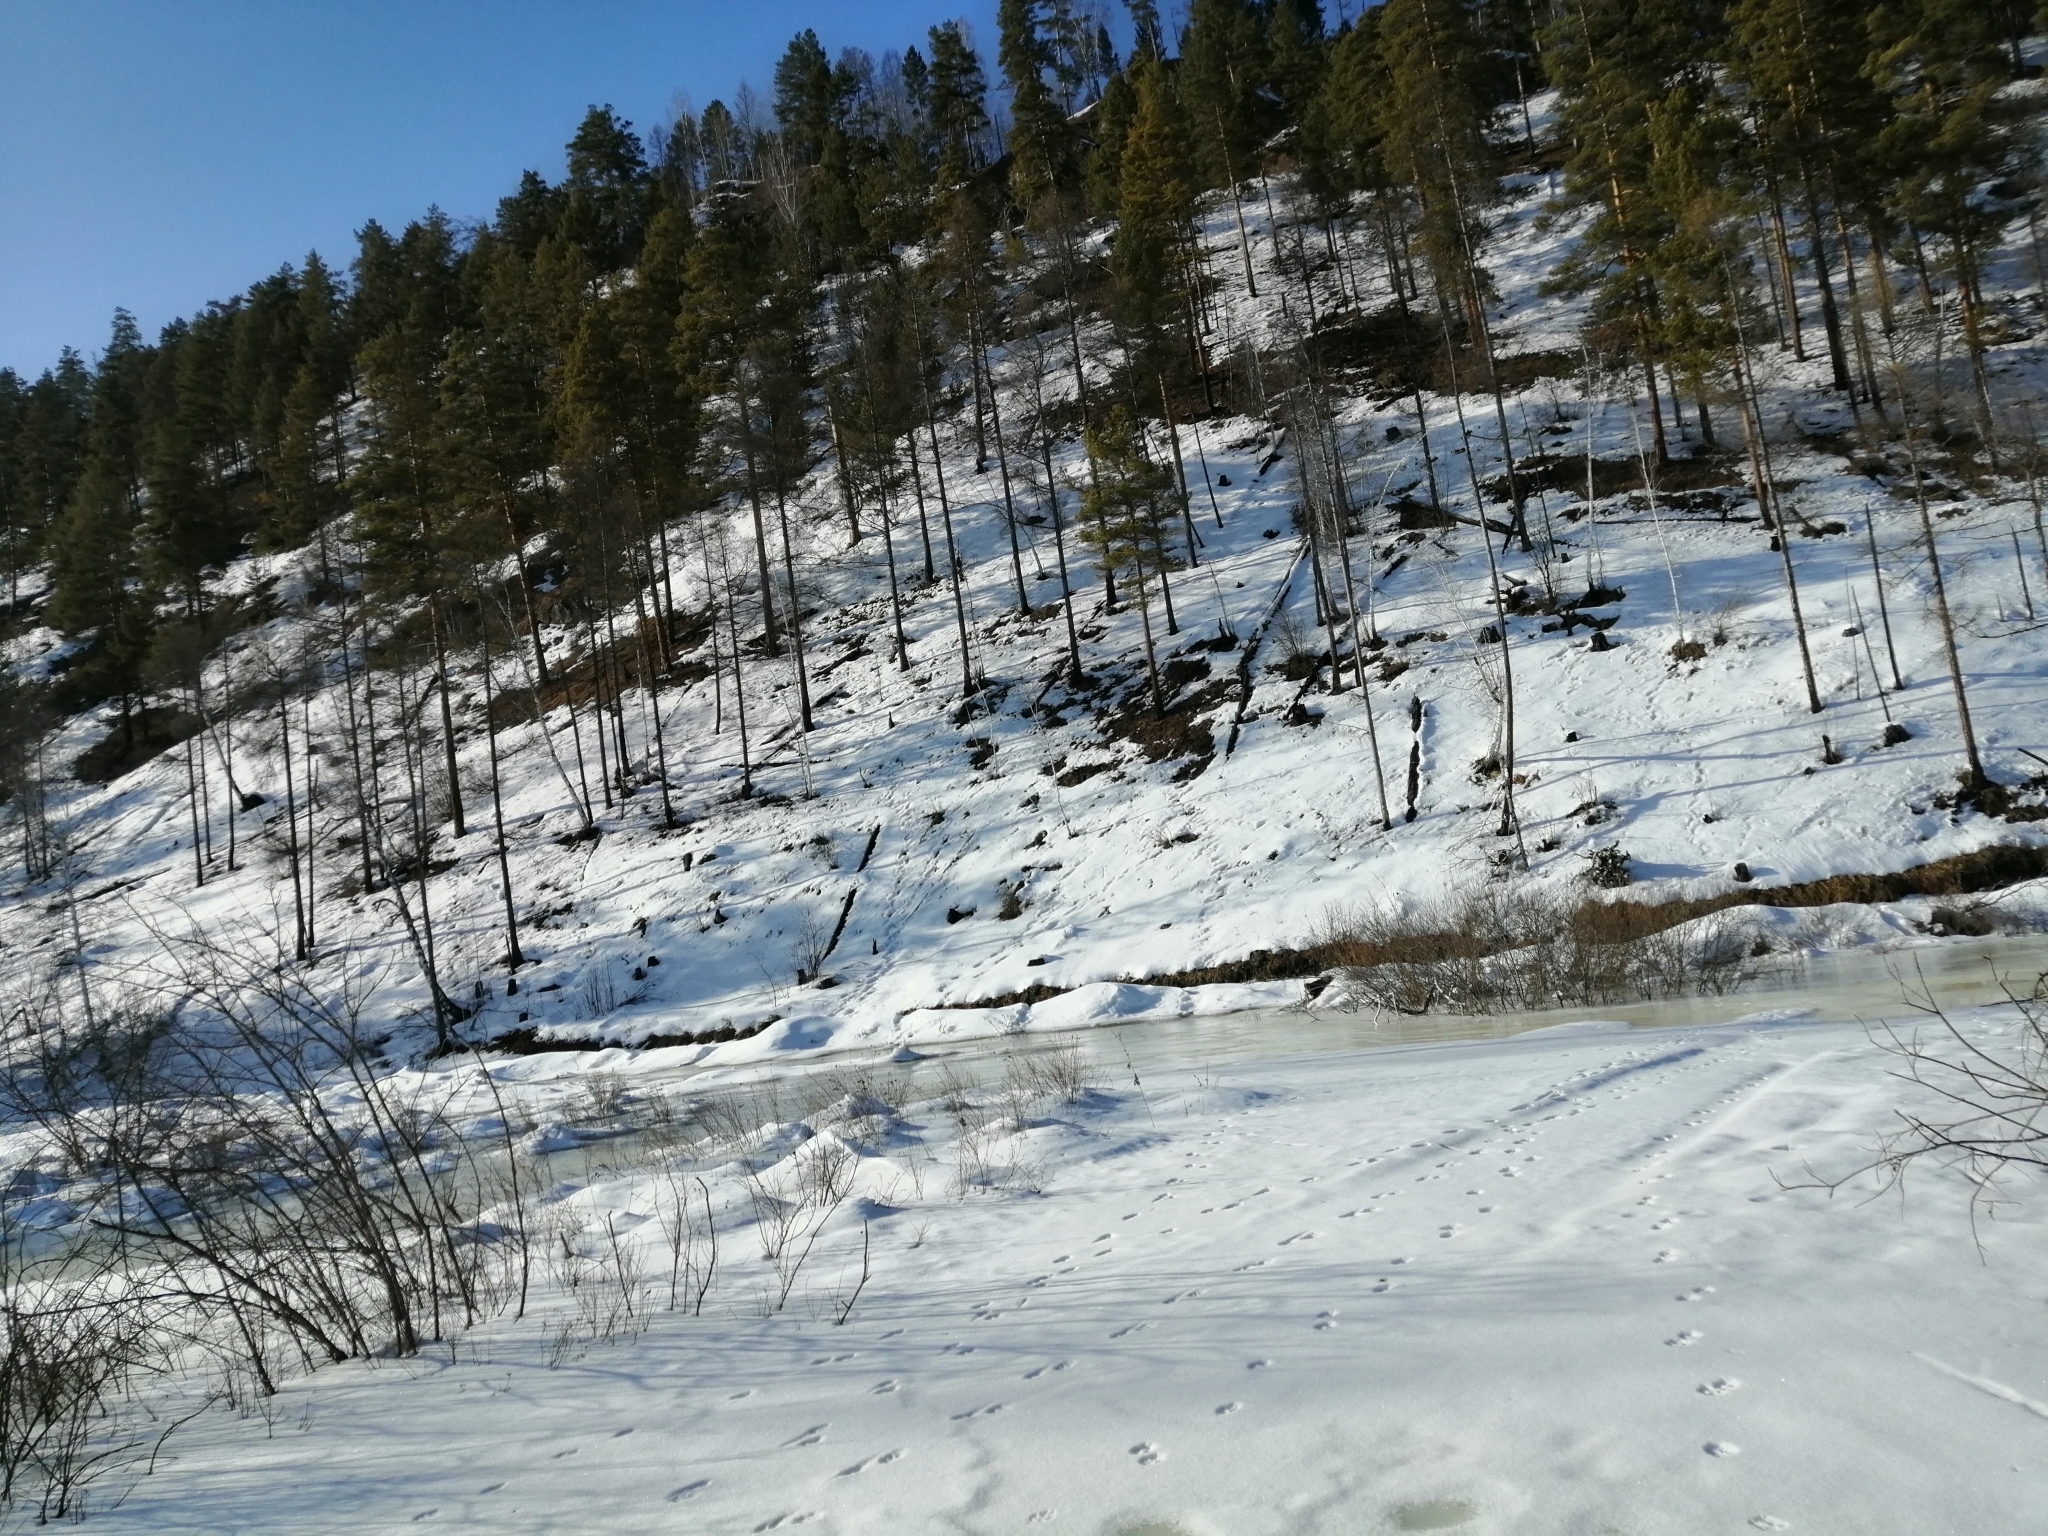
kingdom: Plantae
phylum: Tracheophyta
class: Pinopsida
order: Pinales
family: Pinaceae
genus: Pinus
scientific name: Pinus sylvestris
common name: Scots pine
